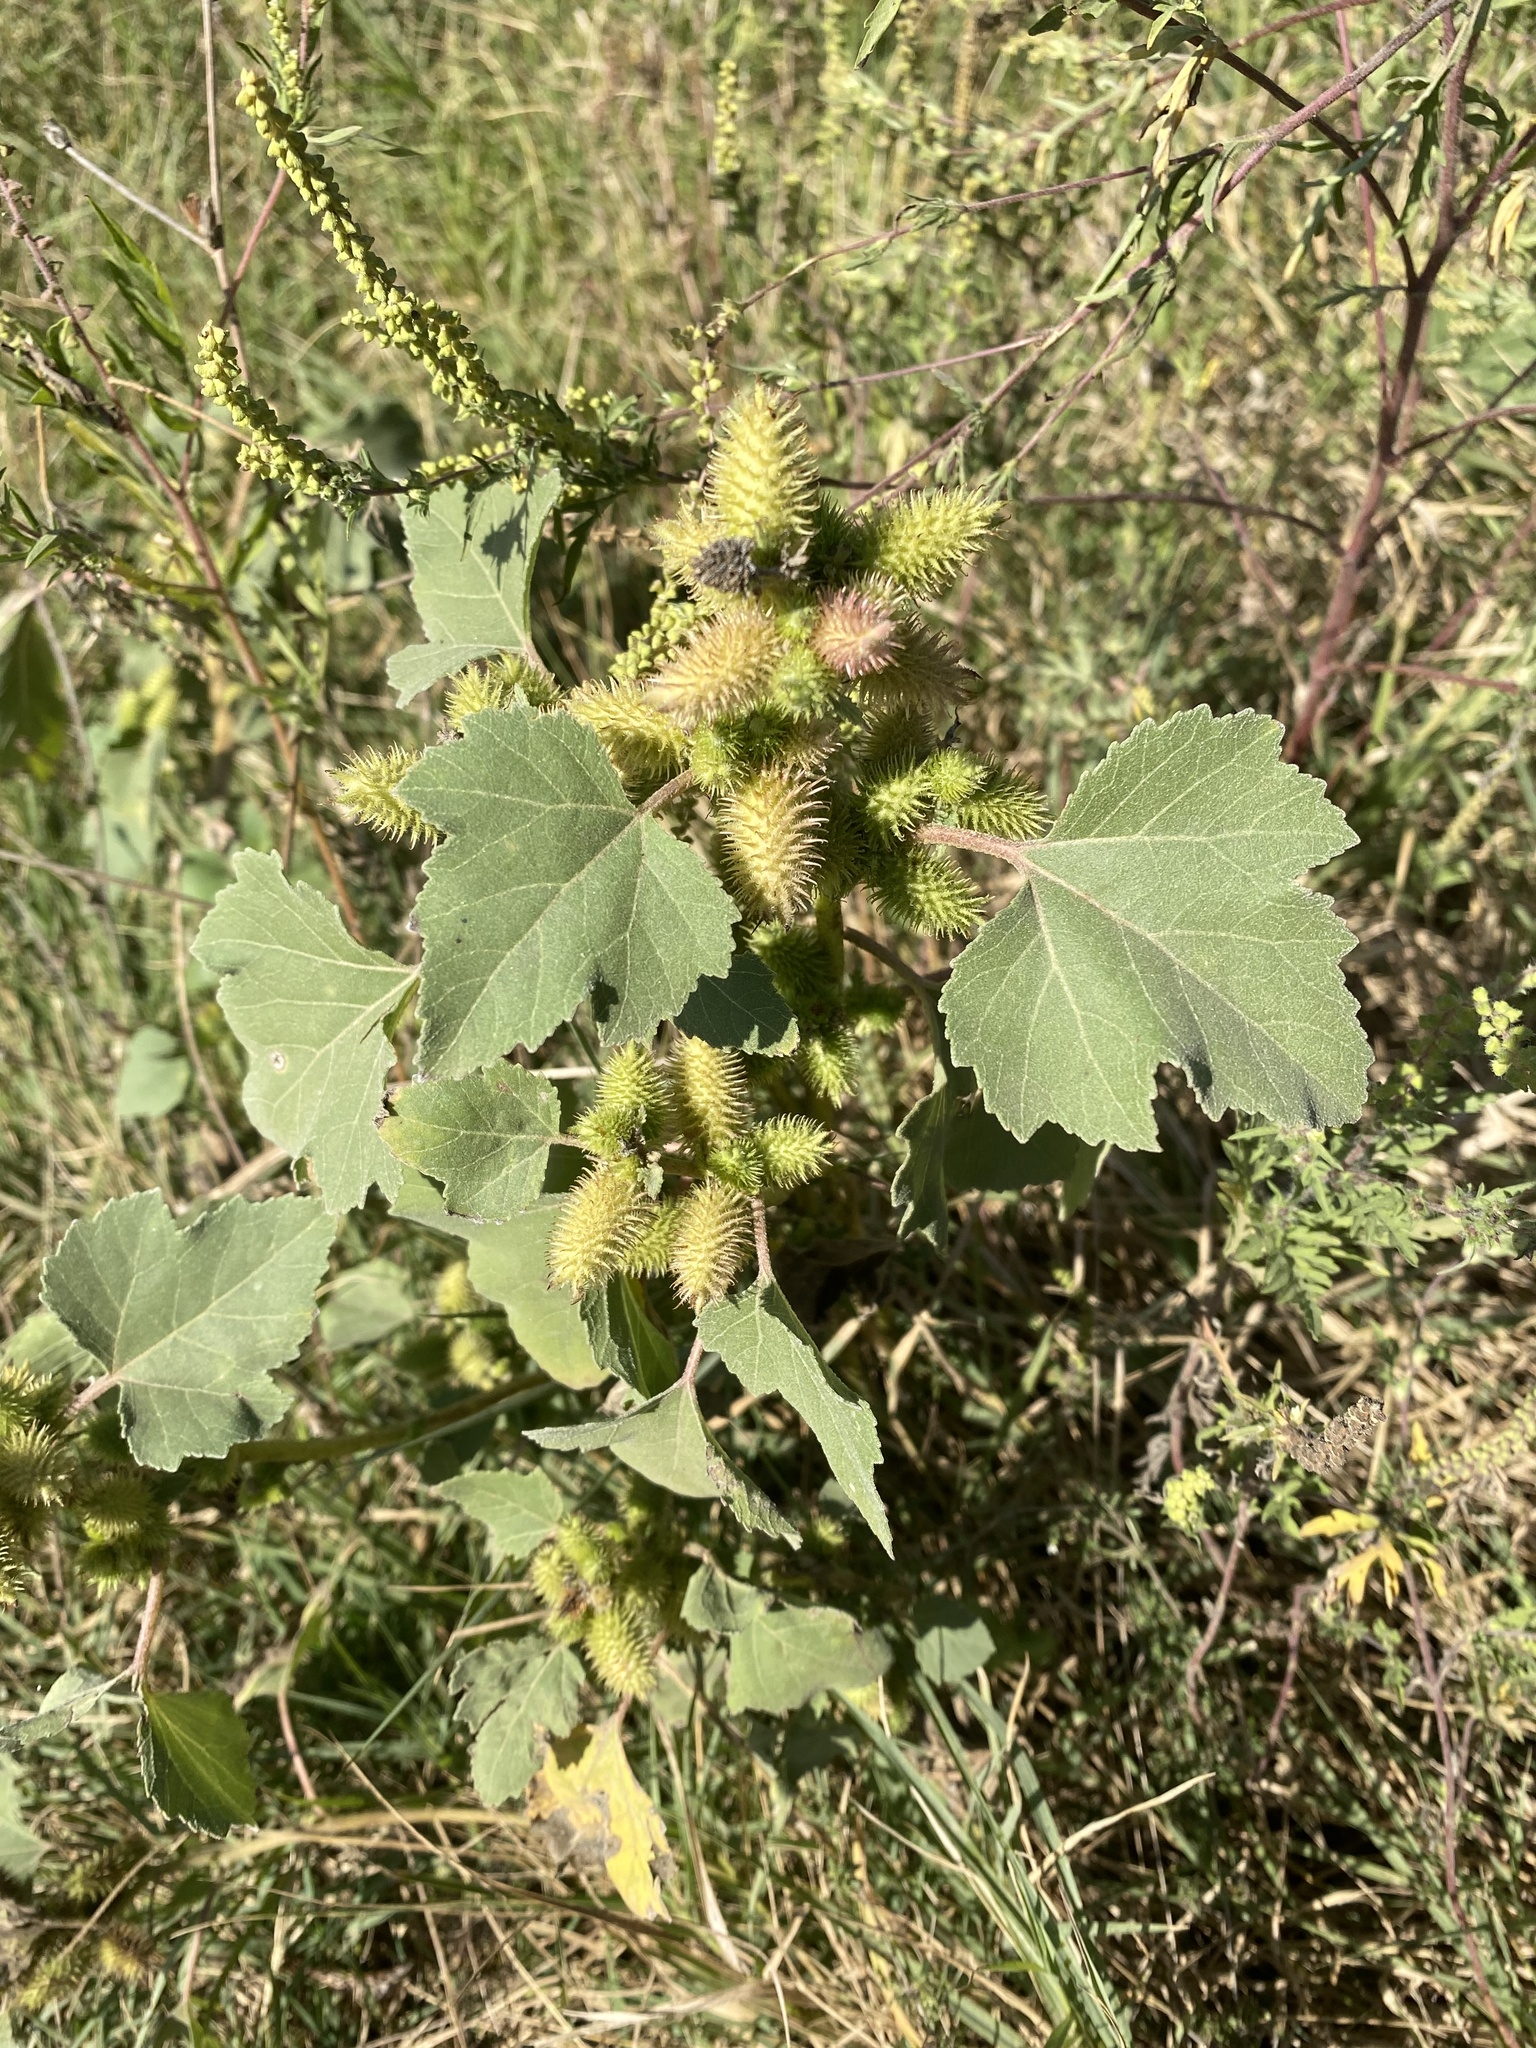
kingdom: Plantae
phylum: Tracheophyta
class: Magnoliopsida
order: Asterales
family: Asteraceae
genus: Xanthium
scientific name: Xanthium orientale
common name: Californian burr
